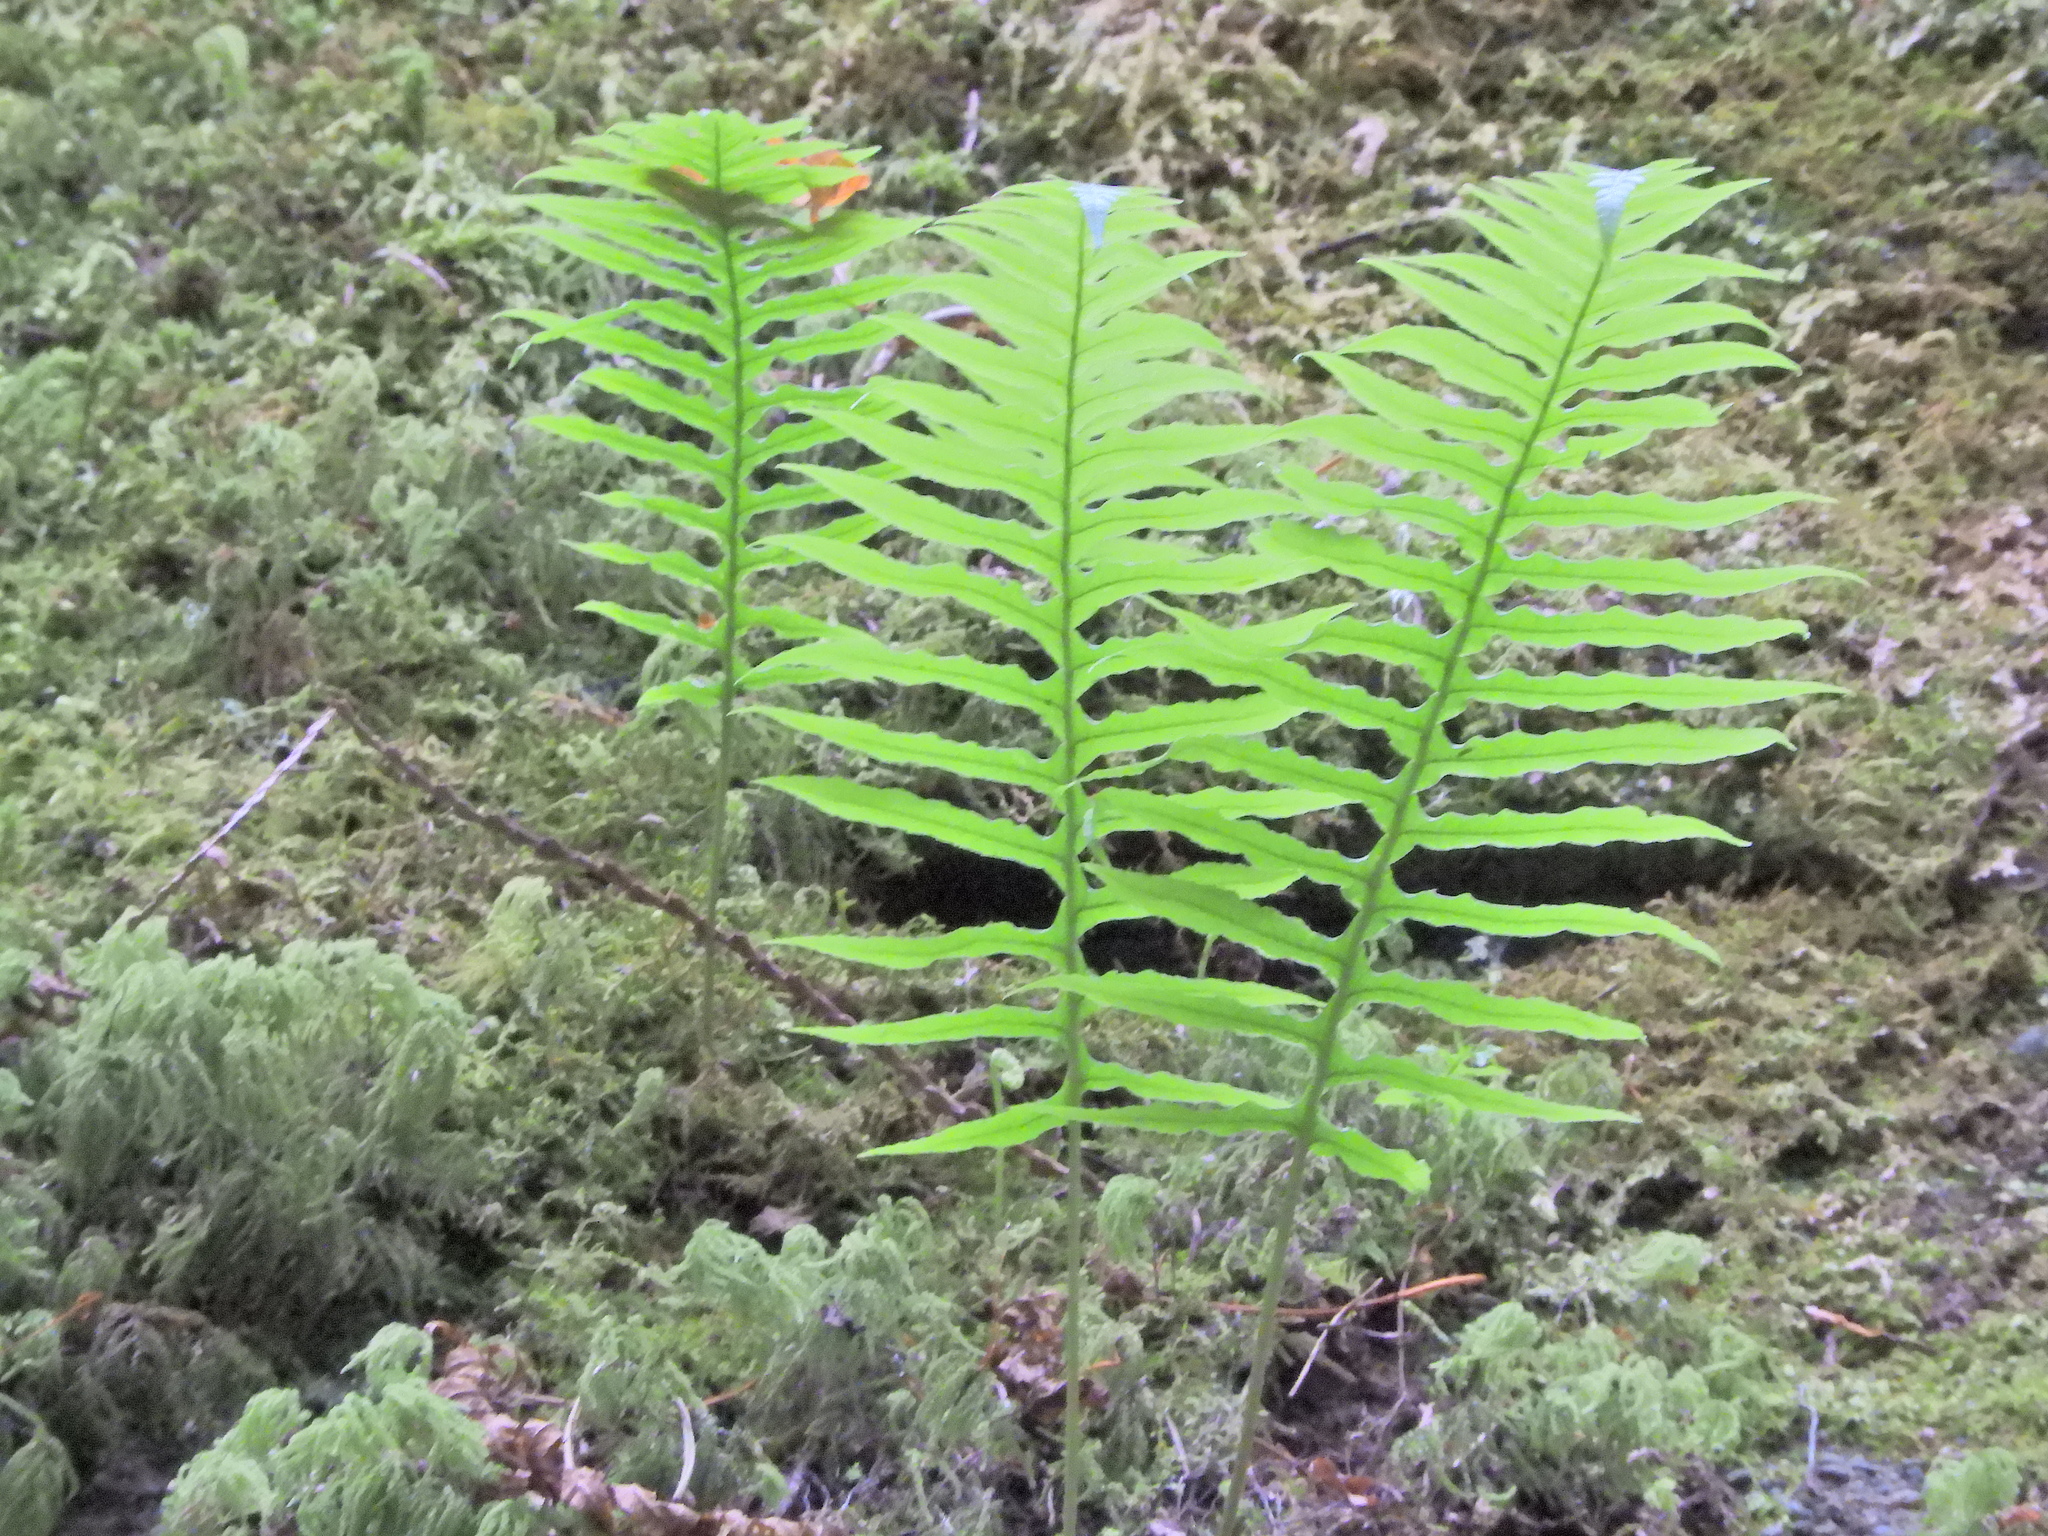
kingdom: Plantae
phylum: Tracheophyta
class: Polypodiopsida
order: Polypodiales
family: Polypodiaceae
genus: Polypodium
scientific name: Polypodium glycyrrhiza
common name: Licorice fern
